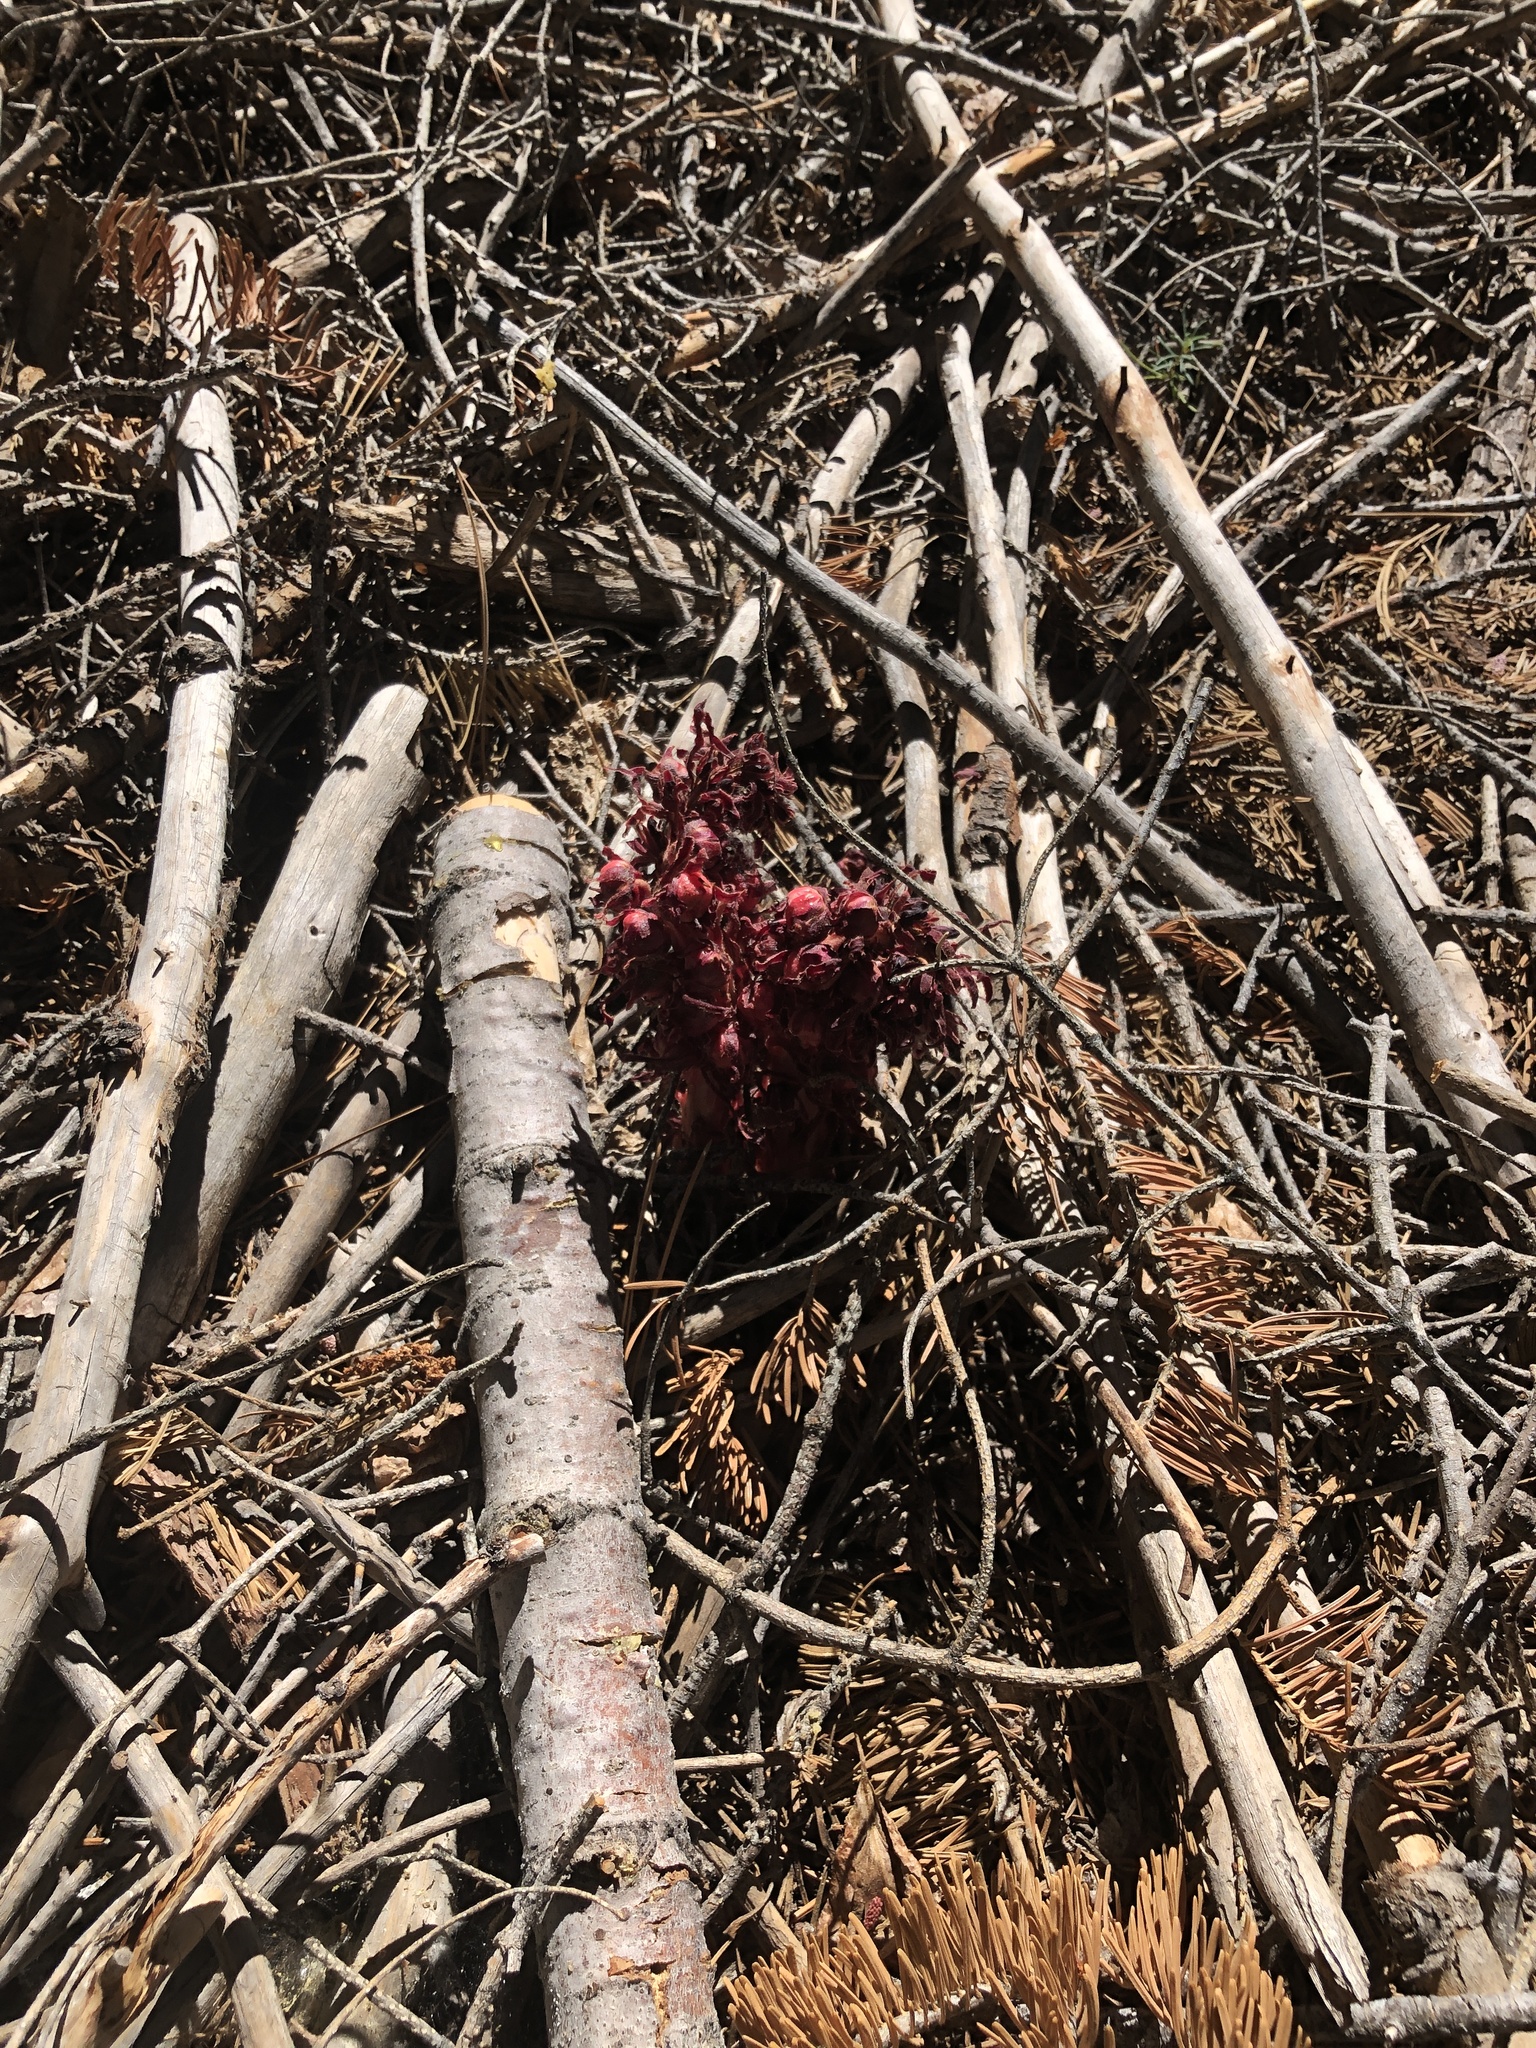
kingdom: Plantae
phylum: Tracheophyta
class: Magnoliopsida
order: Ericales
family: Ericaceae
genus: Sarcodes
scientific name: Sarcodes sanguinea
